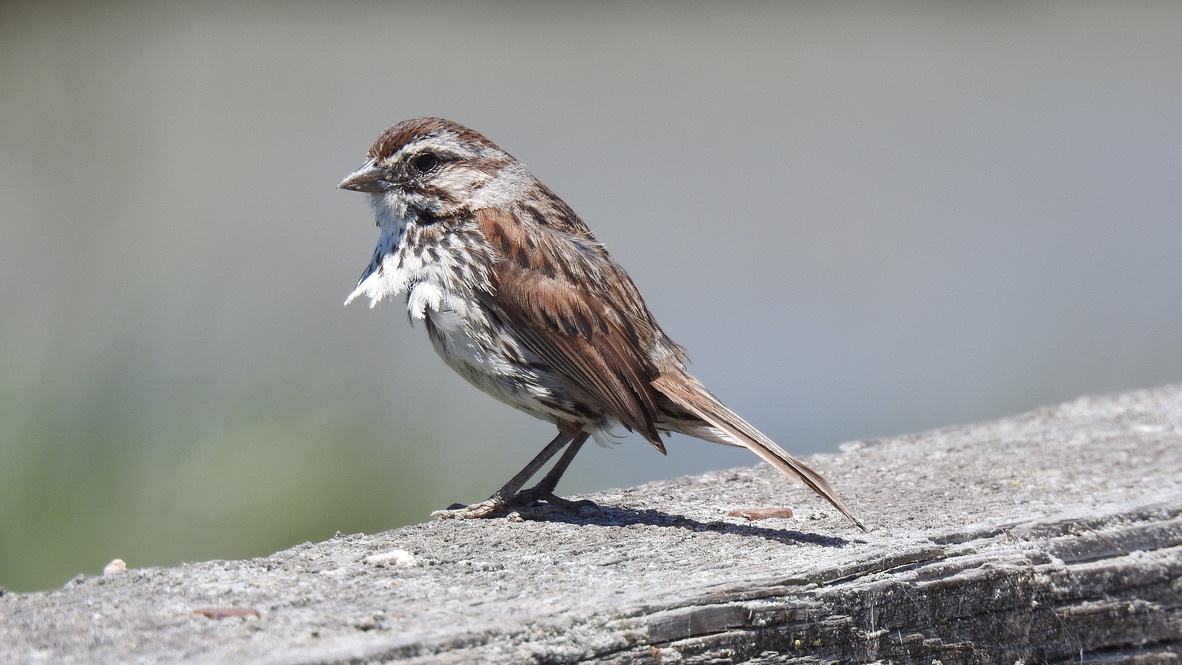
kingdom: Animalia
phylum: Chordata
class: Aves
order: Passeriformes
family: Passerellidae
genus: Melospiza
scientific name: Melospiza melodia
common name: Song sparrow
